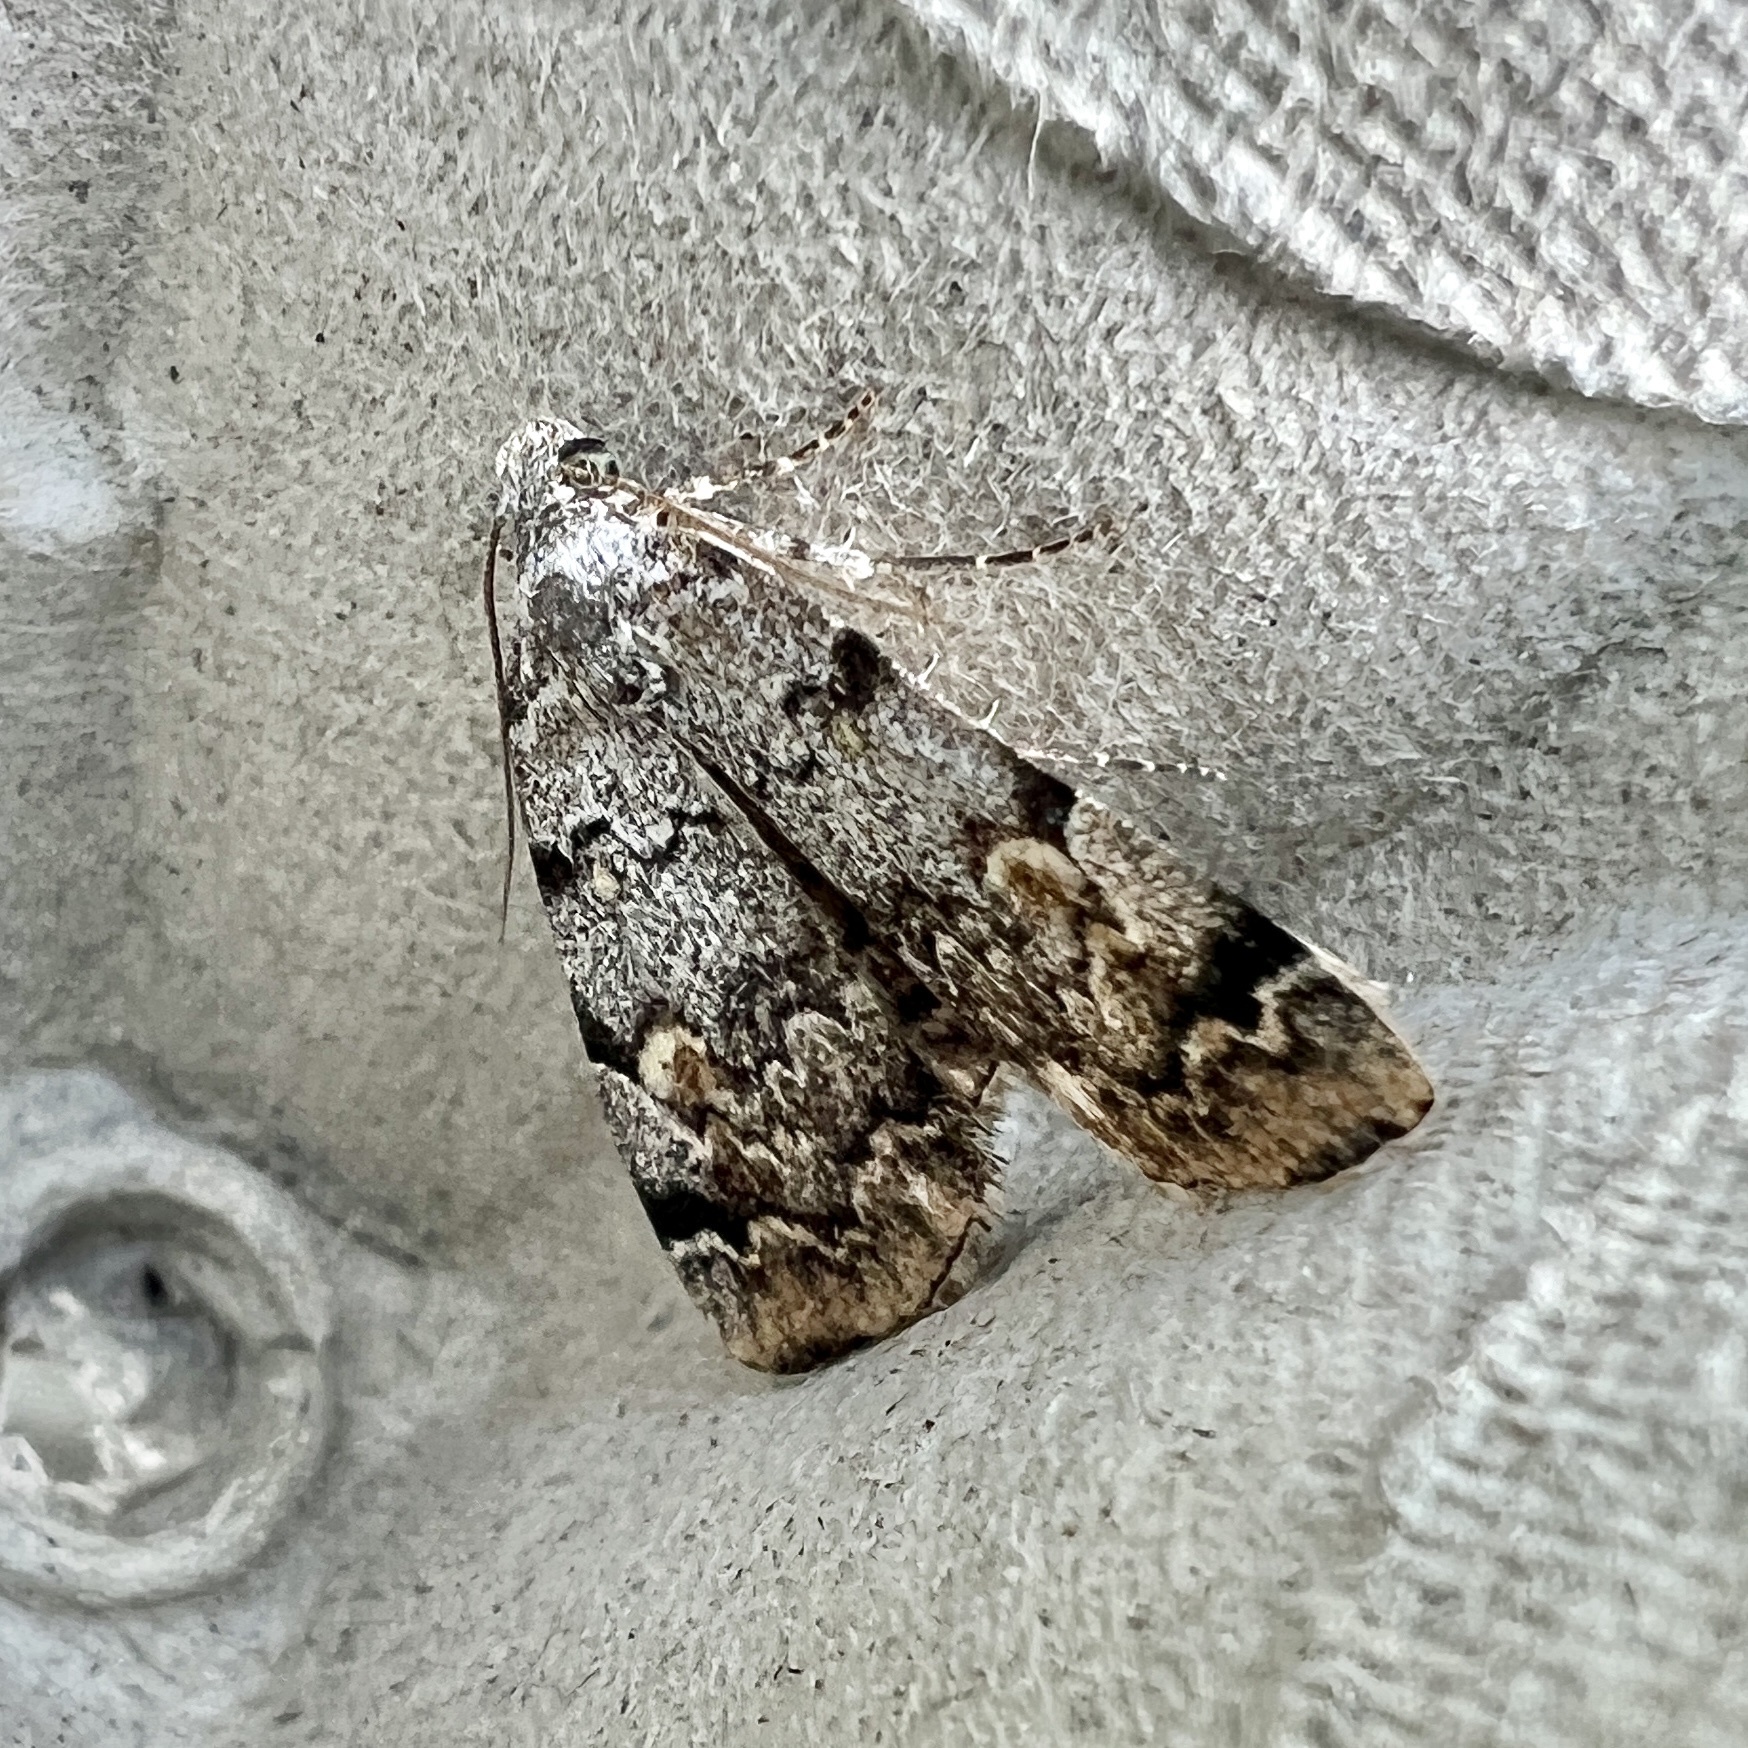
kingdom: Animalia
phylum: Arthropoda
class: Insecta
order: Lepidoptera
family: Erebidae
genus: Idia
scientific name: Idia americalis
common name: American idia moth
